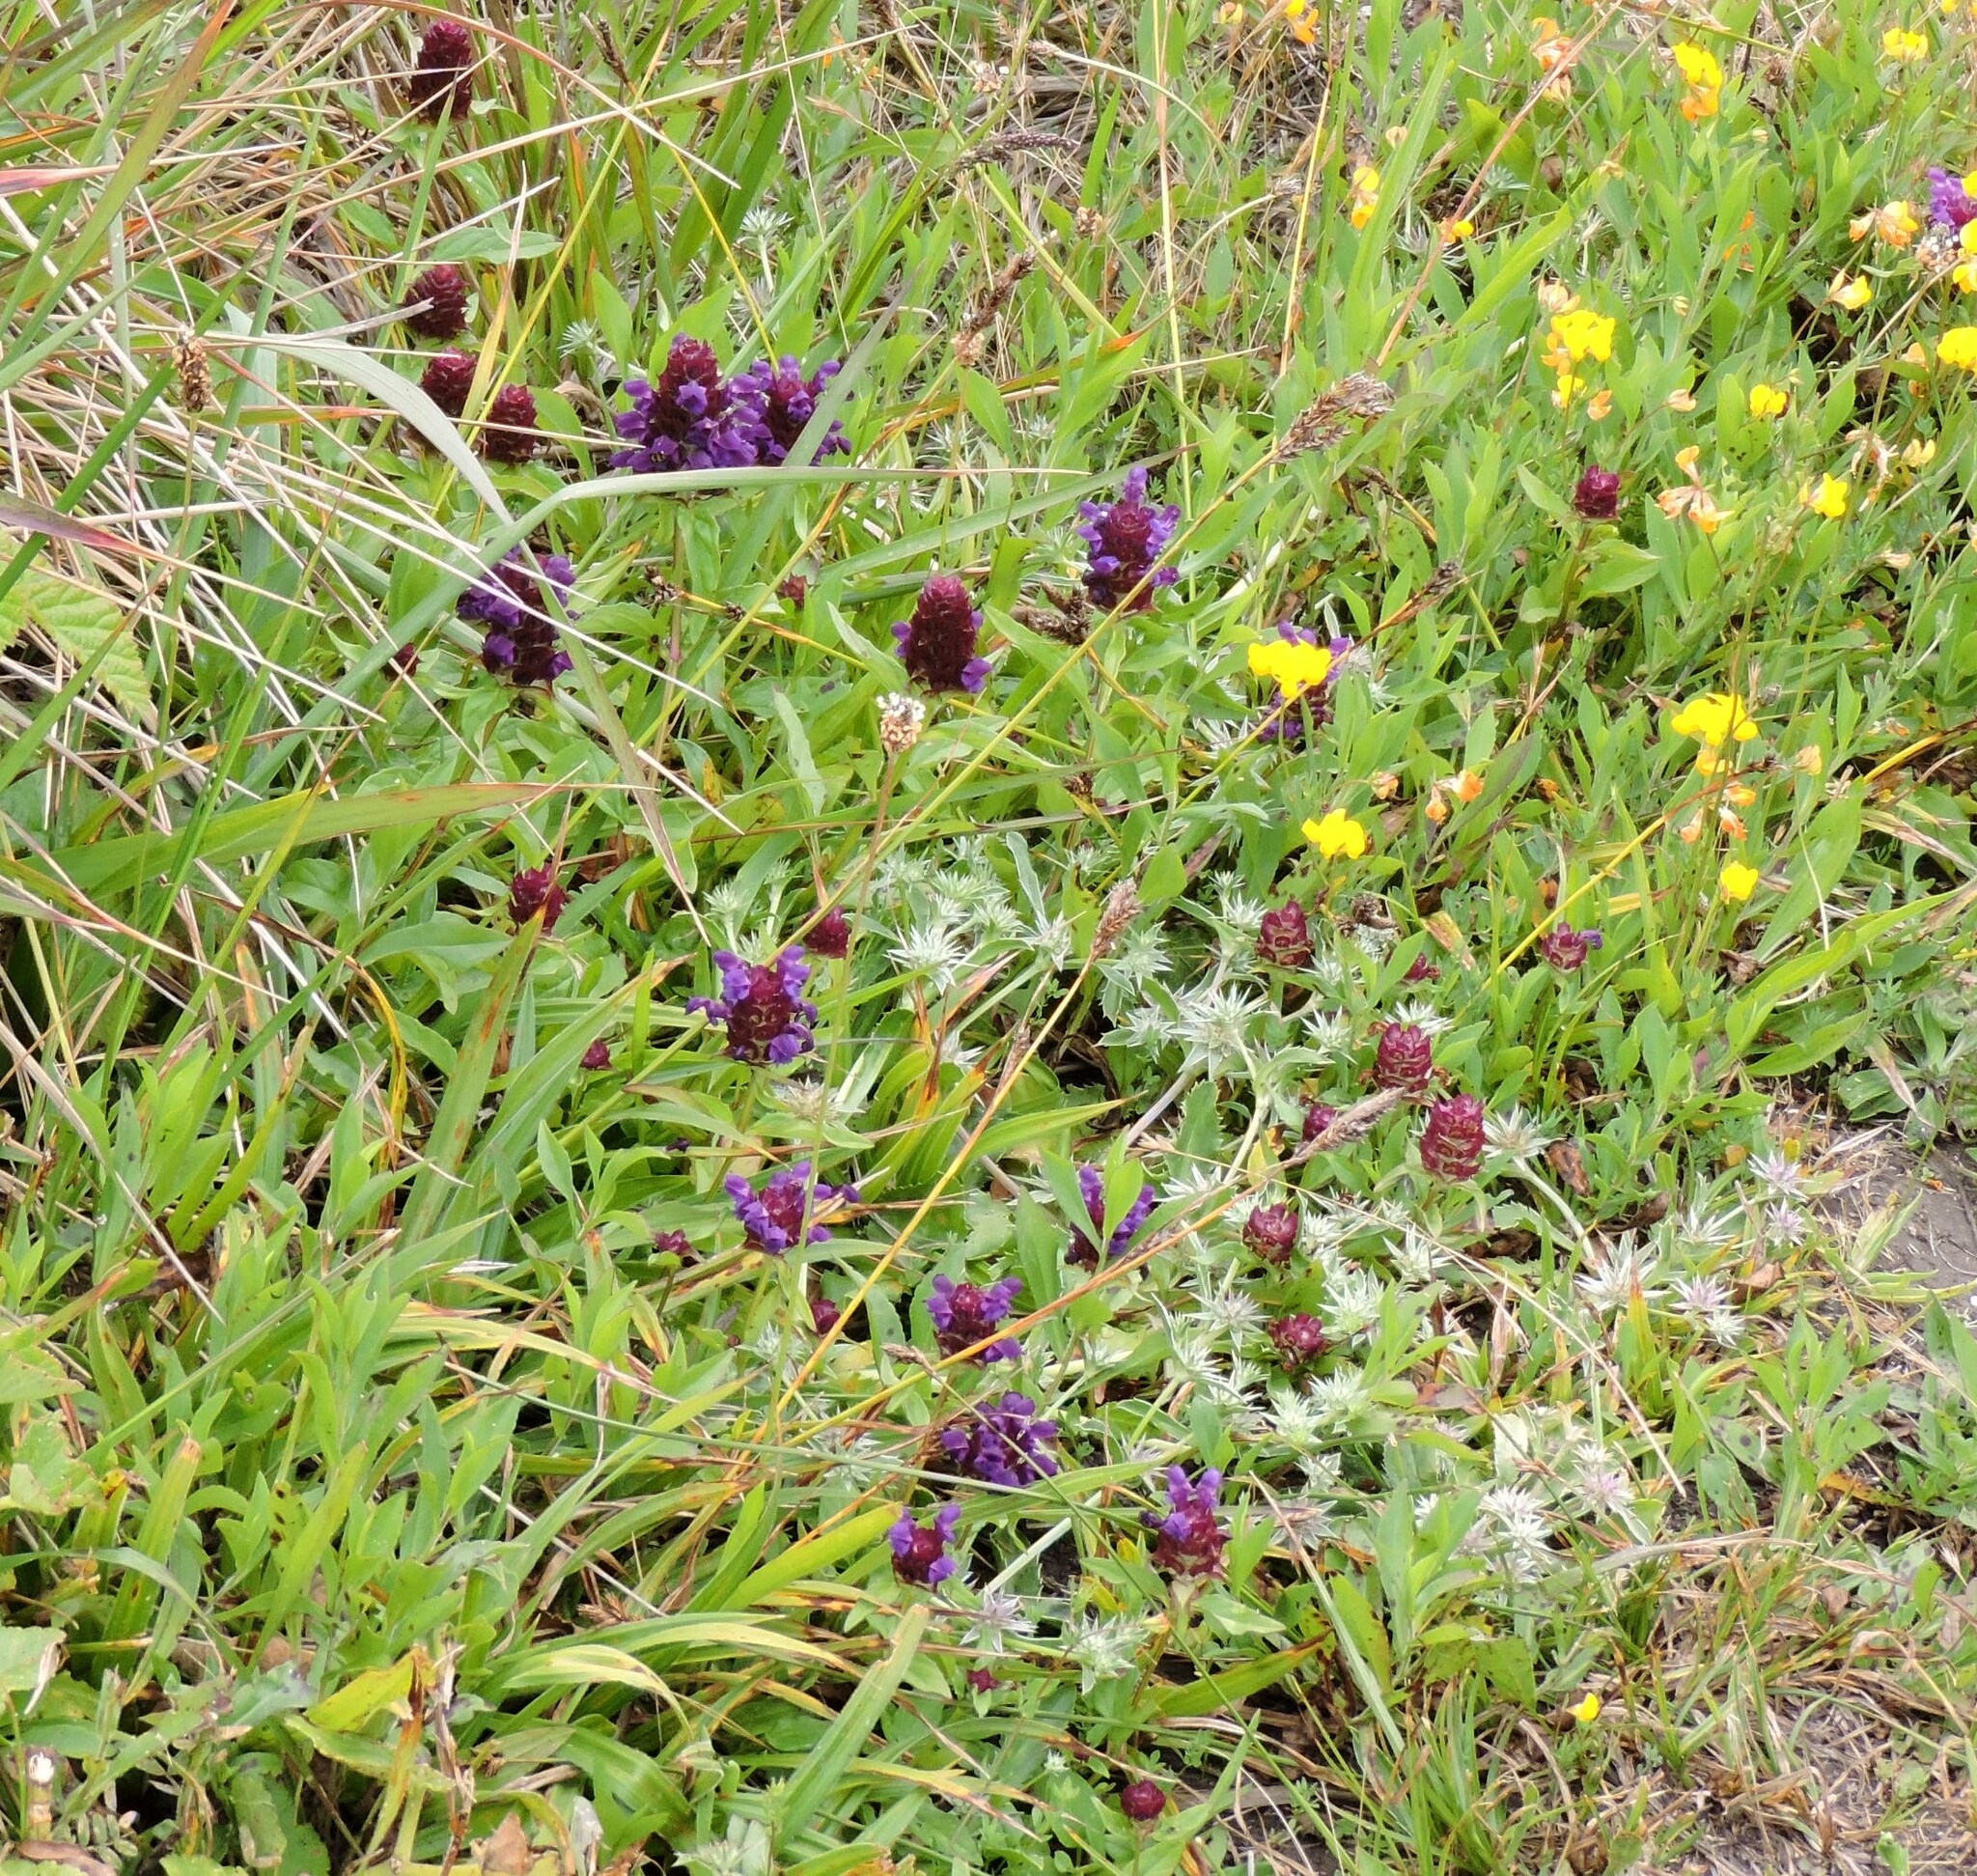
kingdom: Plantae
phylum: Tracheophyta
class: Magnoliopsida
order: Lamiales
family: Lamiaceae
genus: Prunella
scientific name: Prunella vulgaris
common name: Heal-all
